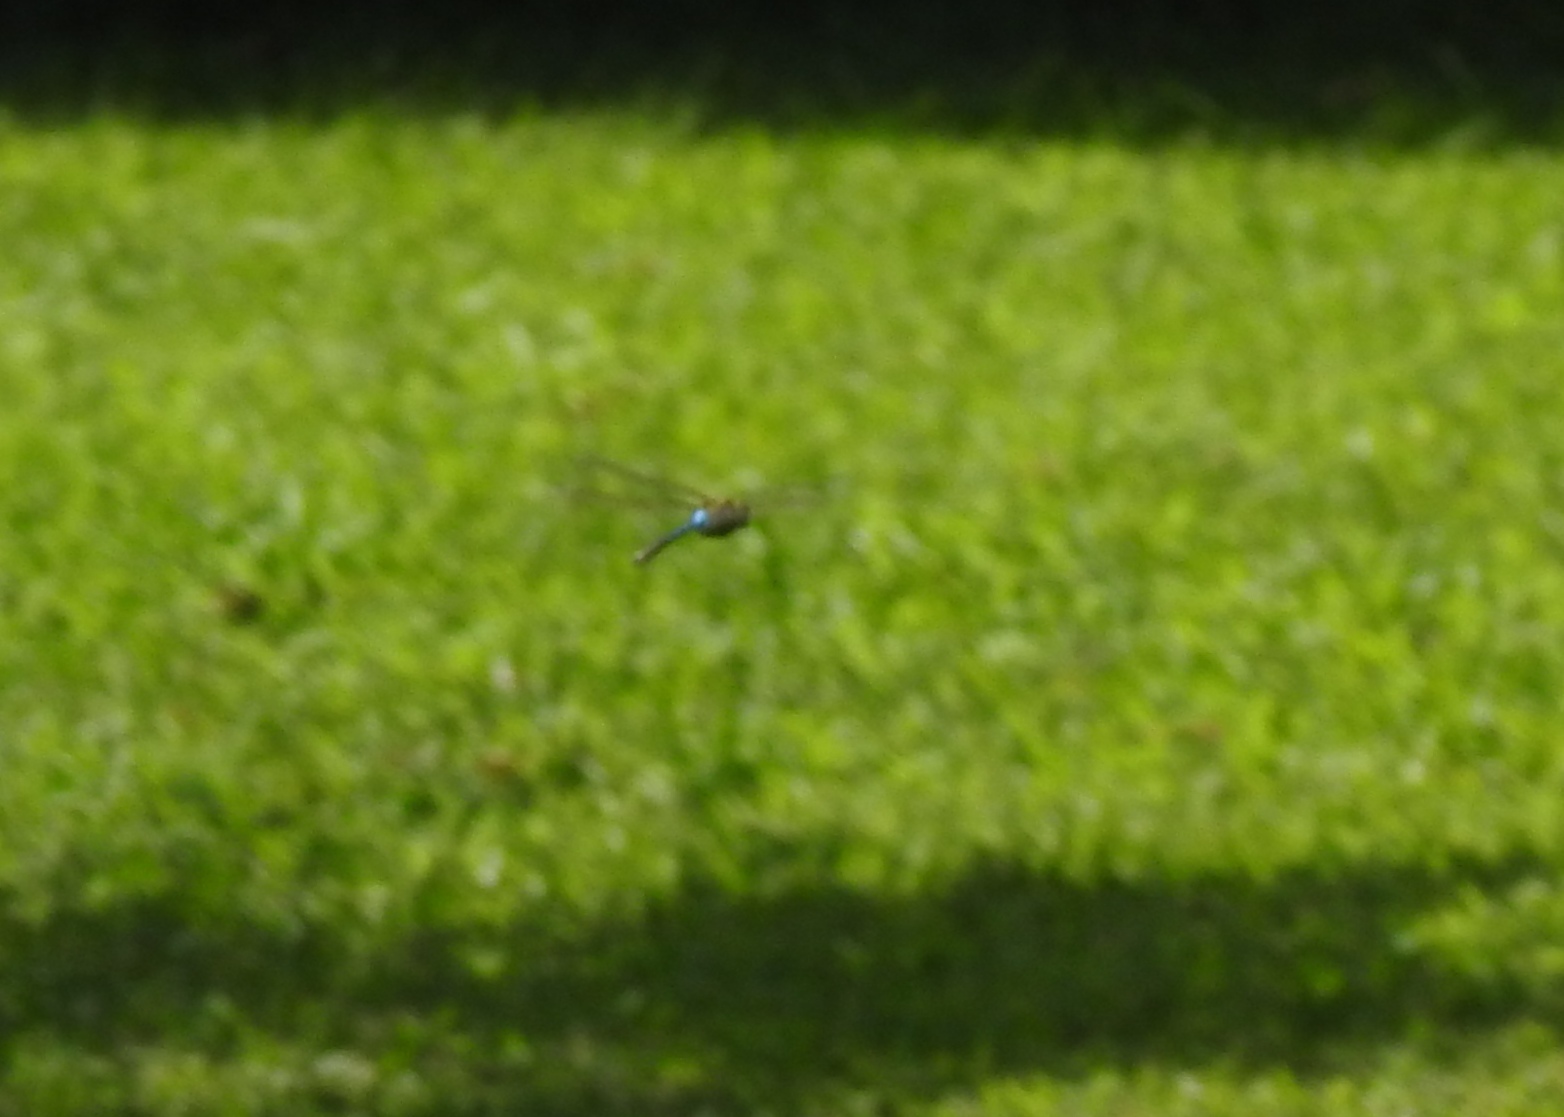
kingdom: Animalia
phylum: Arthropoda
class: Insecta
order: Odonata
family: Aeshnidae
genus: Anax
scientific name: Anax junius
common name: Common green darner
